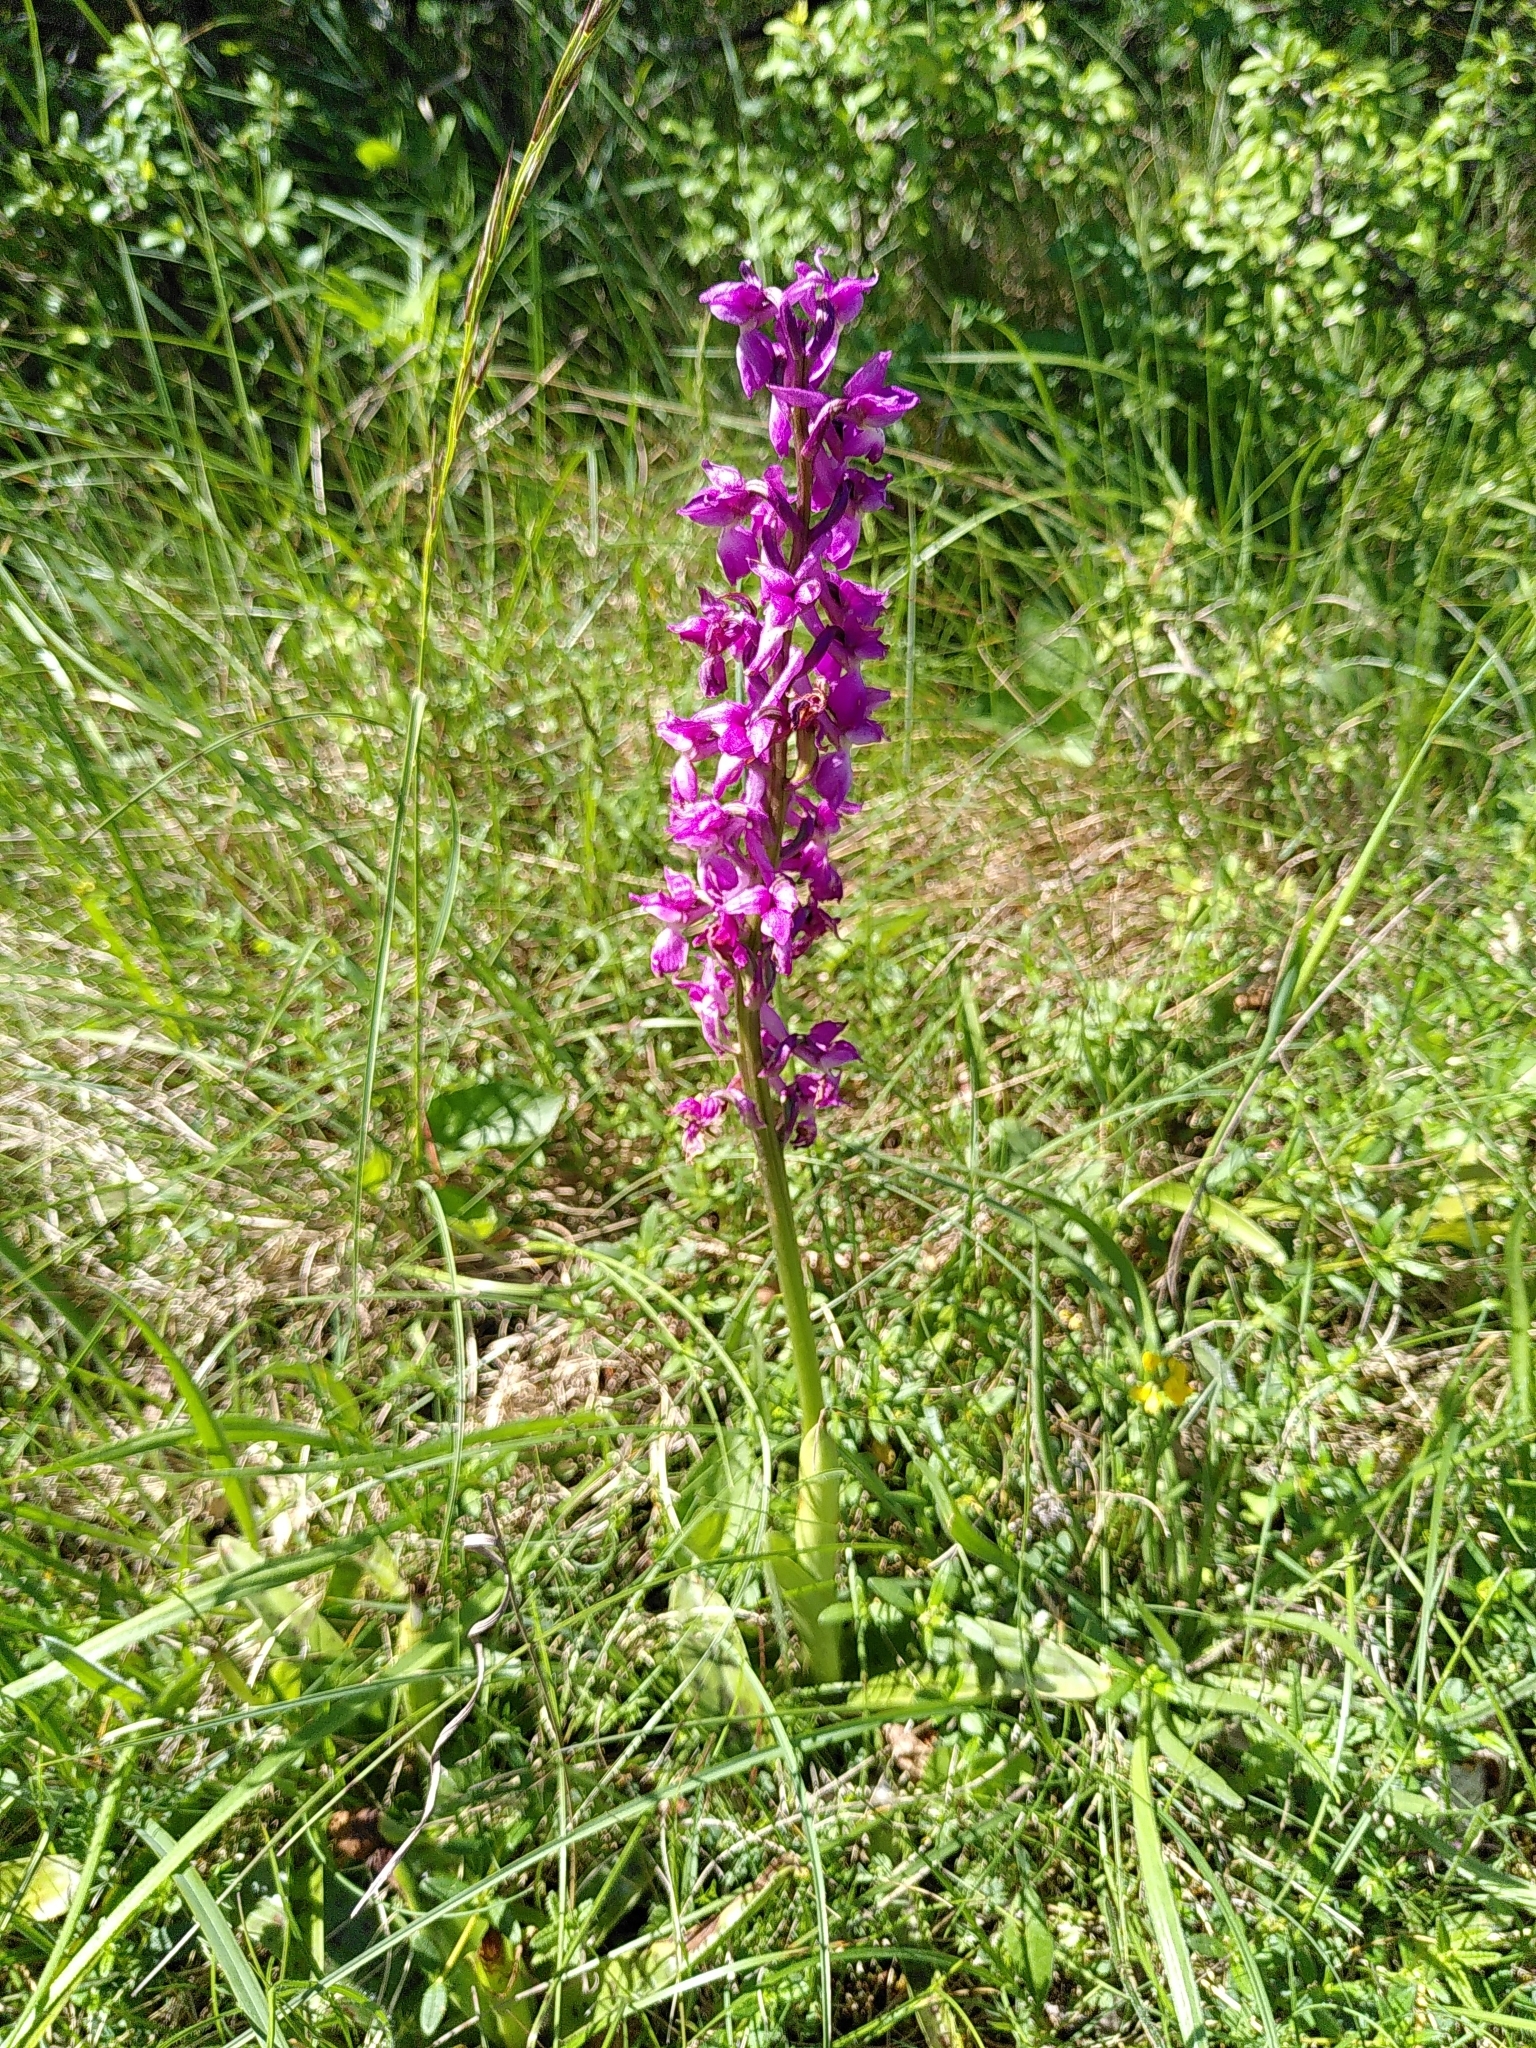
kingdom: Plantae
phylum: Tracheophyta
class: Liliopsida
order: Asparagales
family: Orchidaceae
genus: Orchis
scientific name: Orchis mascula
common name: Early-purple orchid
